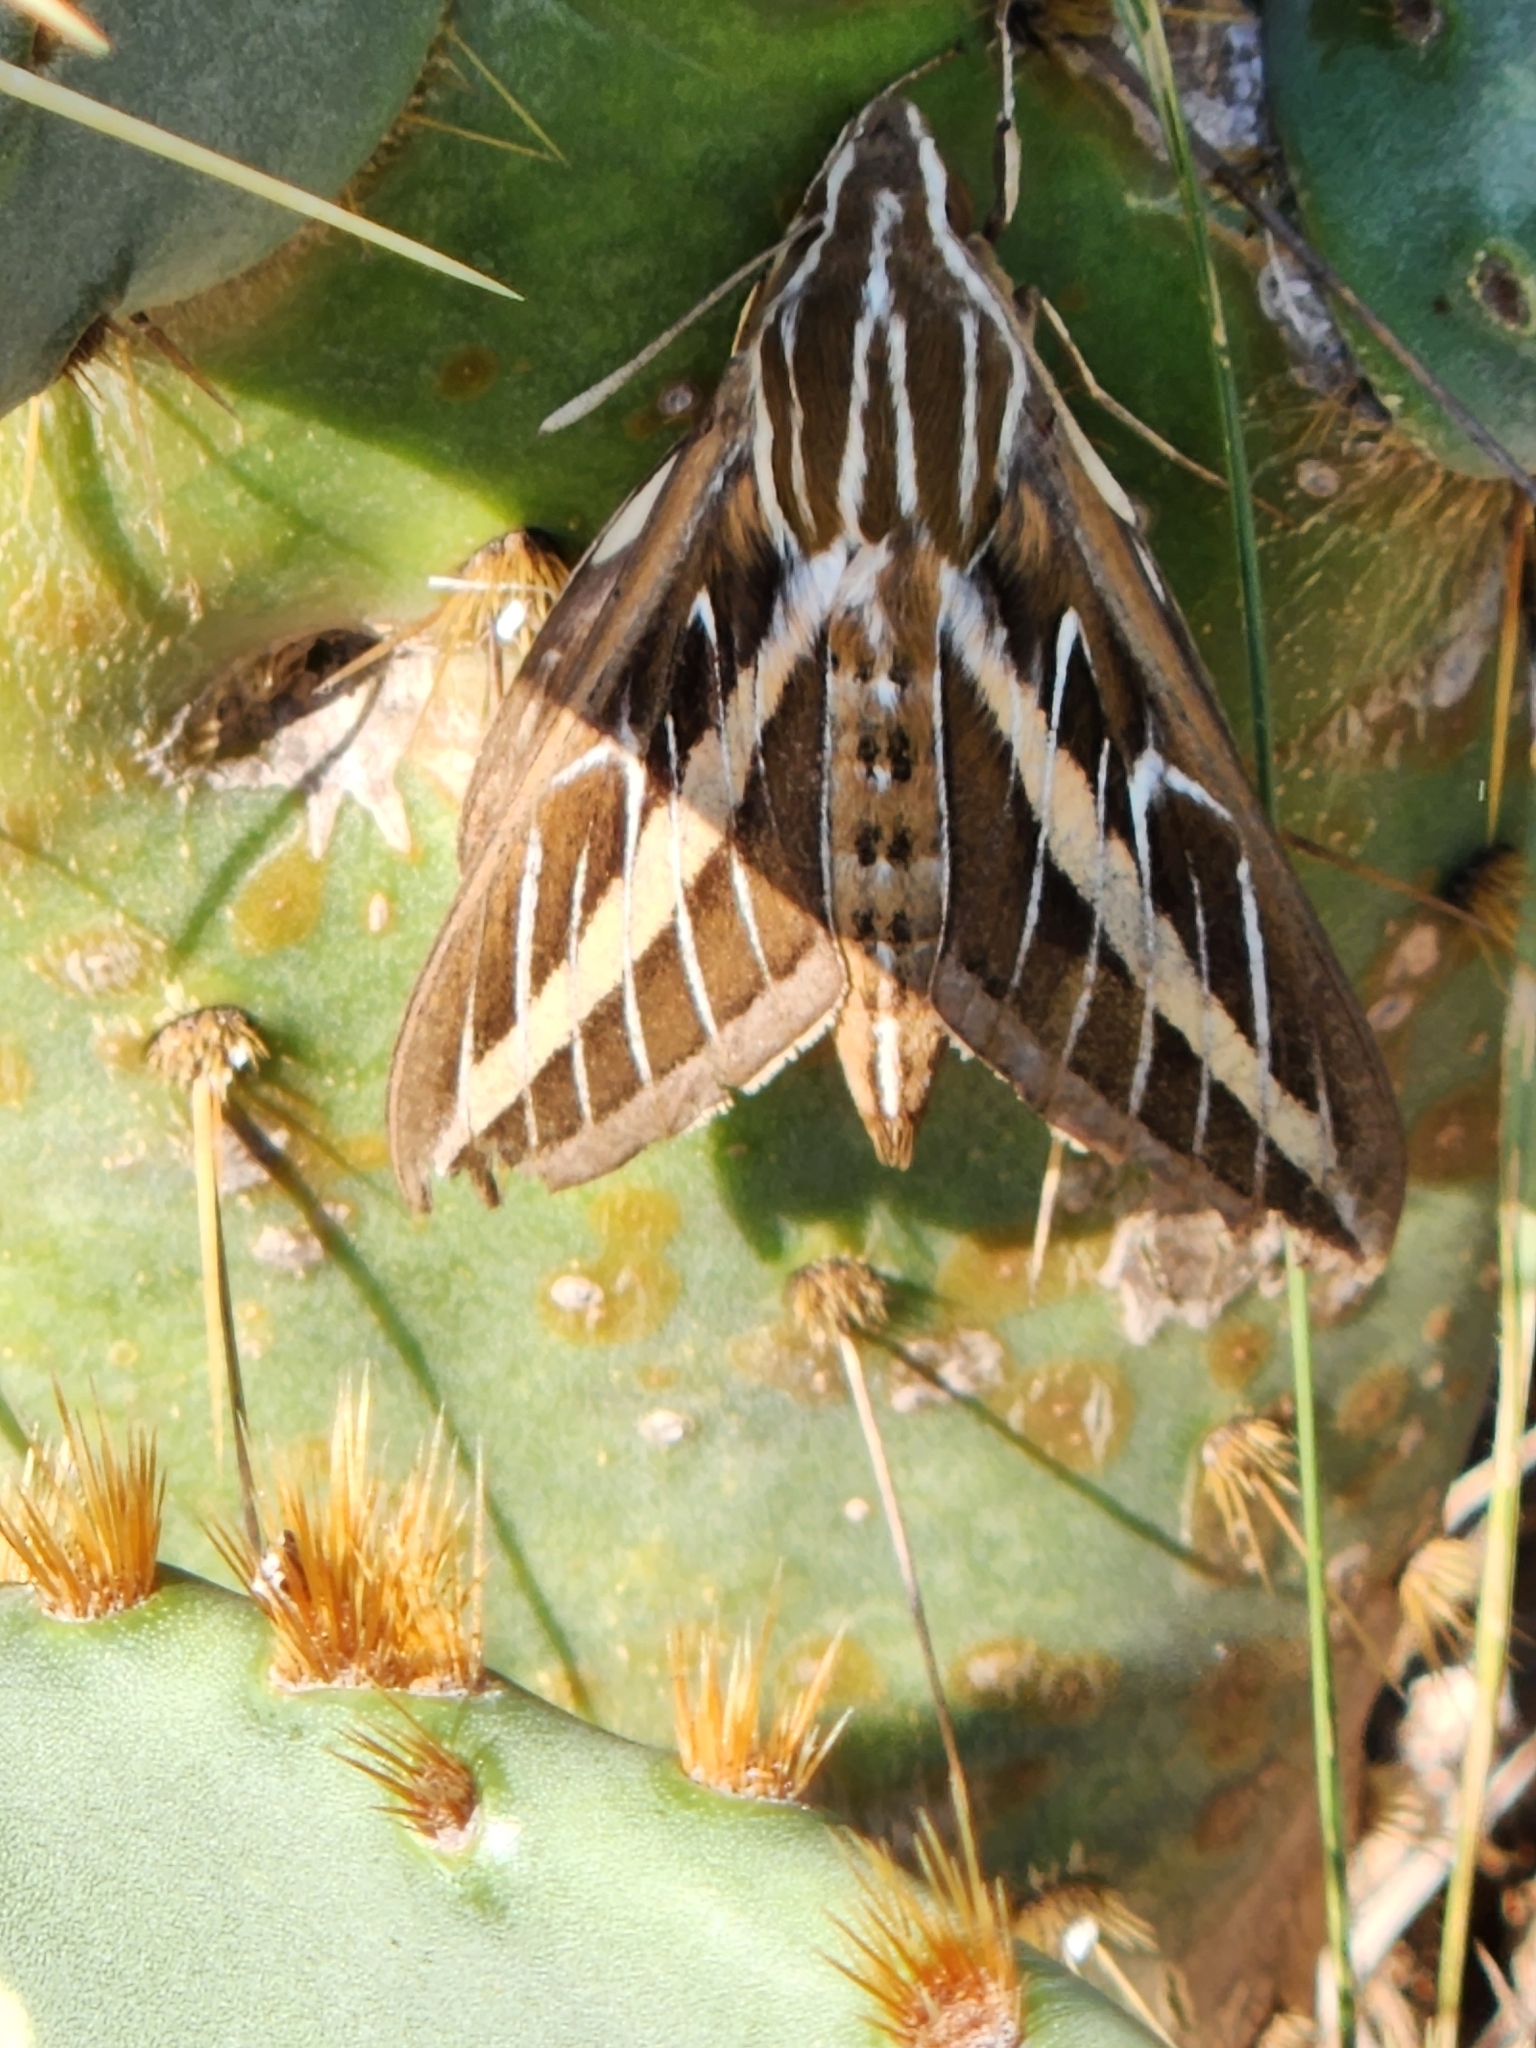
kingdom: Animalia
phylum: Arthropoda
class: Insecta
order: Lepidoptera
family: Sphingidae
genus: Hyles
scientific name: Hyles lineata
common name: White-lined sphinx
